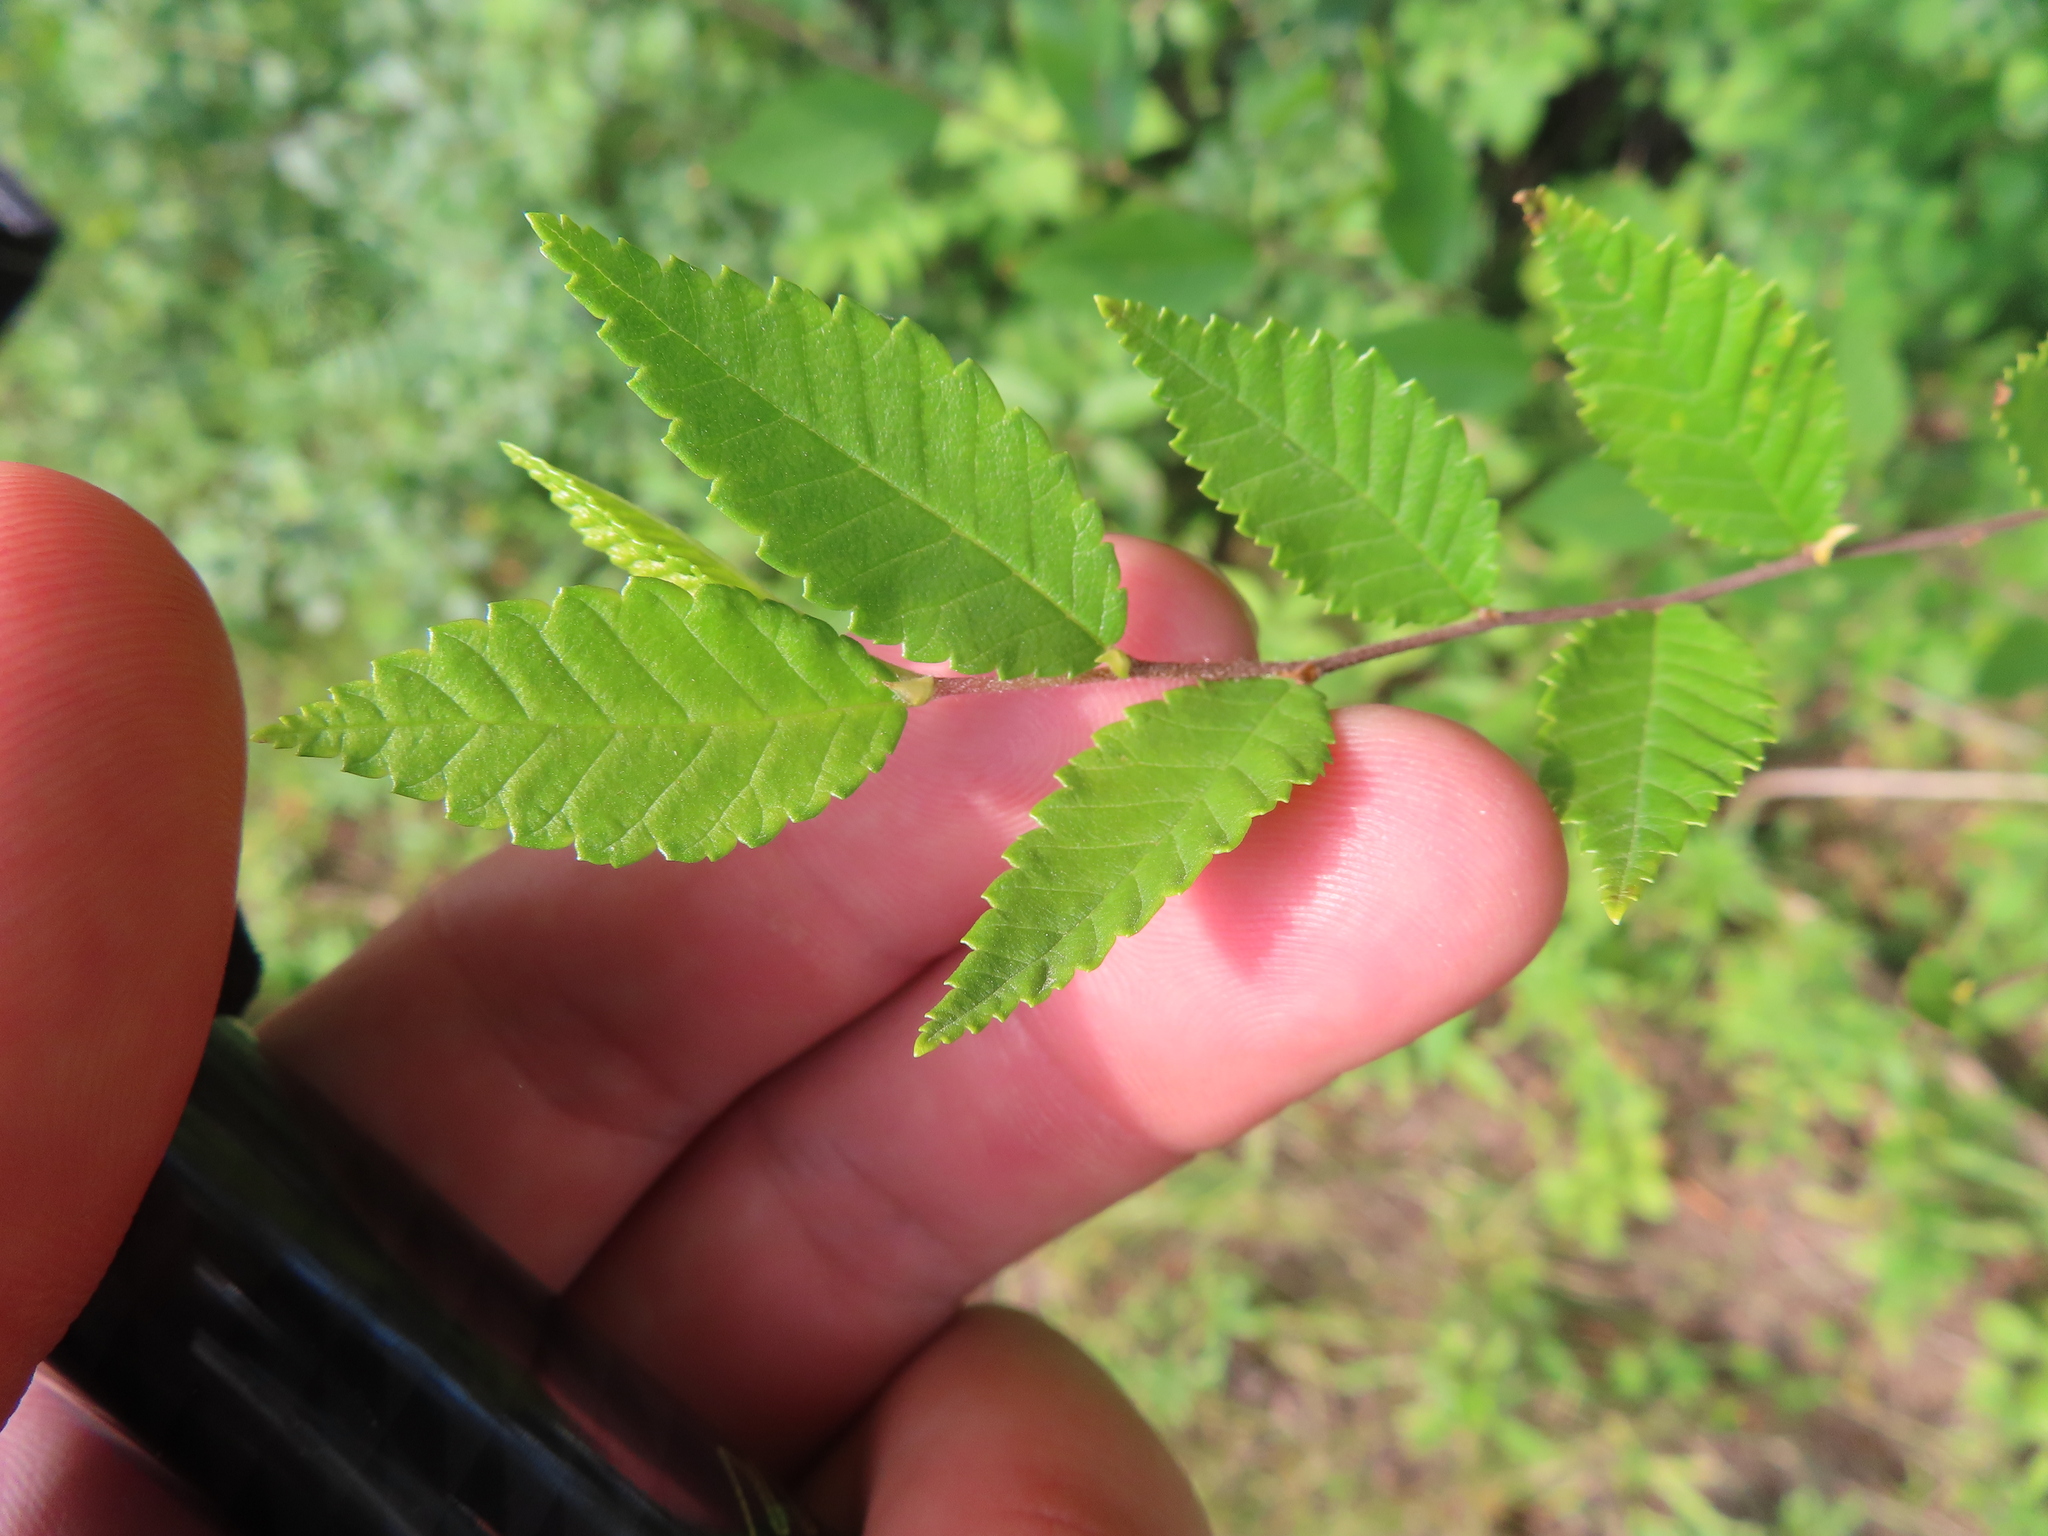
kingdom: Plantae
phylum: Tracheophyta
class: Magnoliopsida
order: Rosales
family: Ulmaceae
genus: Ulmus
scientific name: Ulmus pumila
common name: Siberian elm
